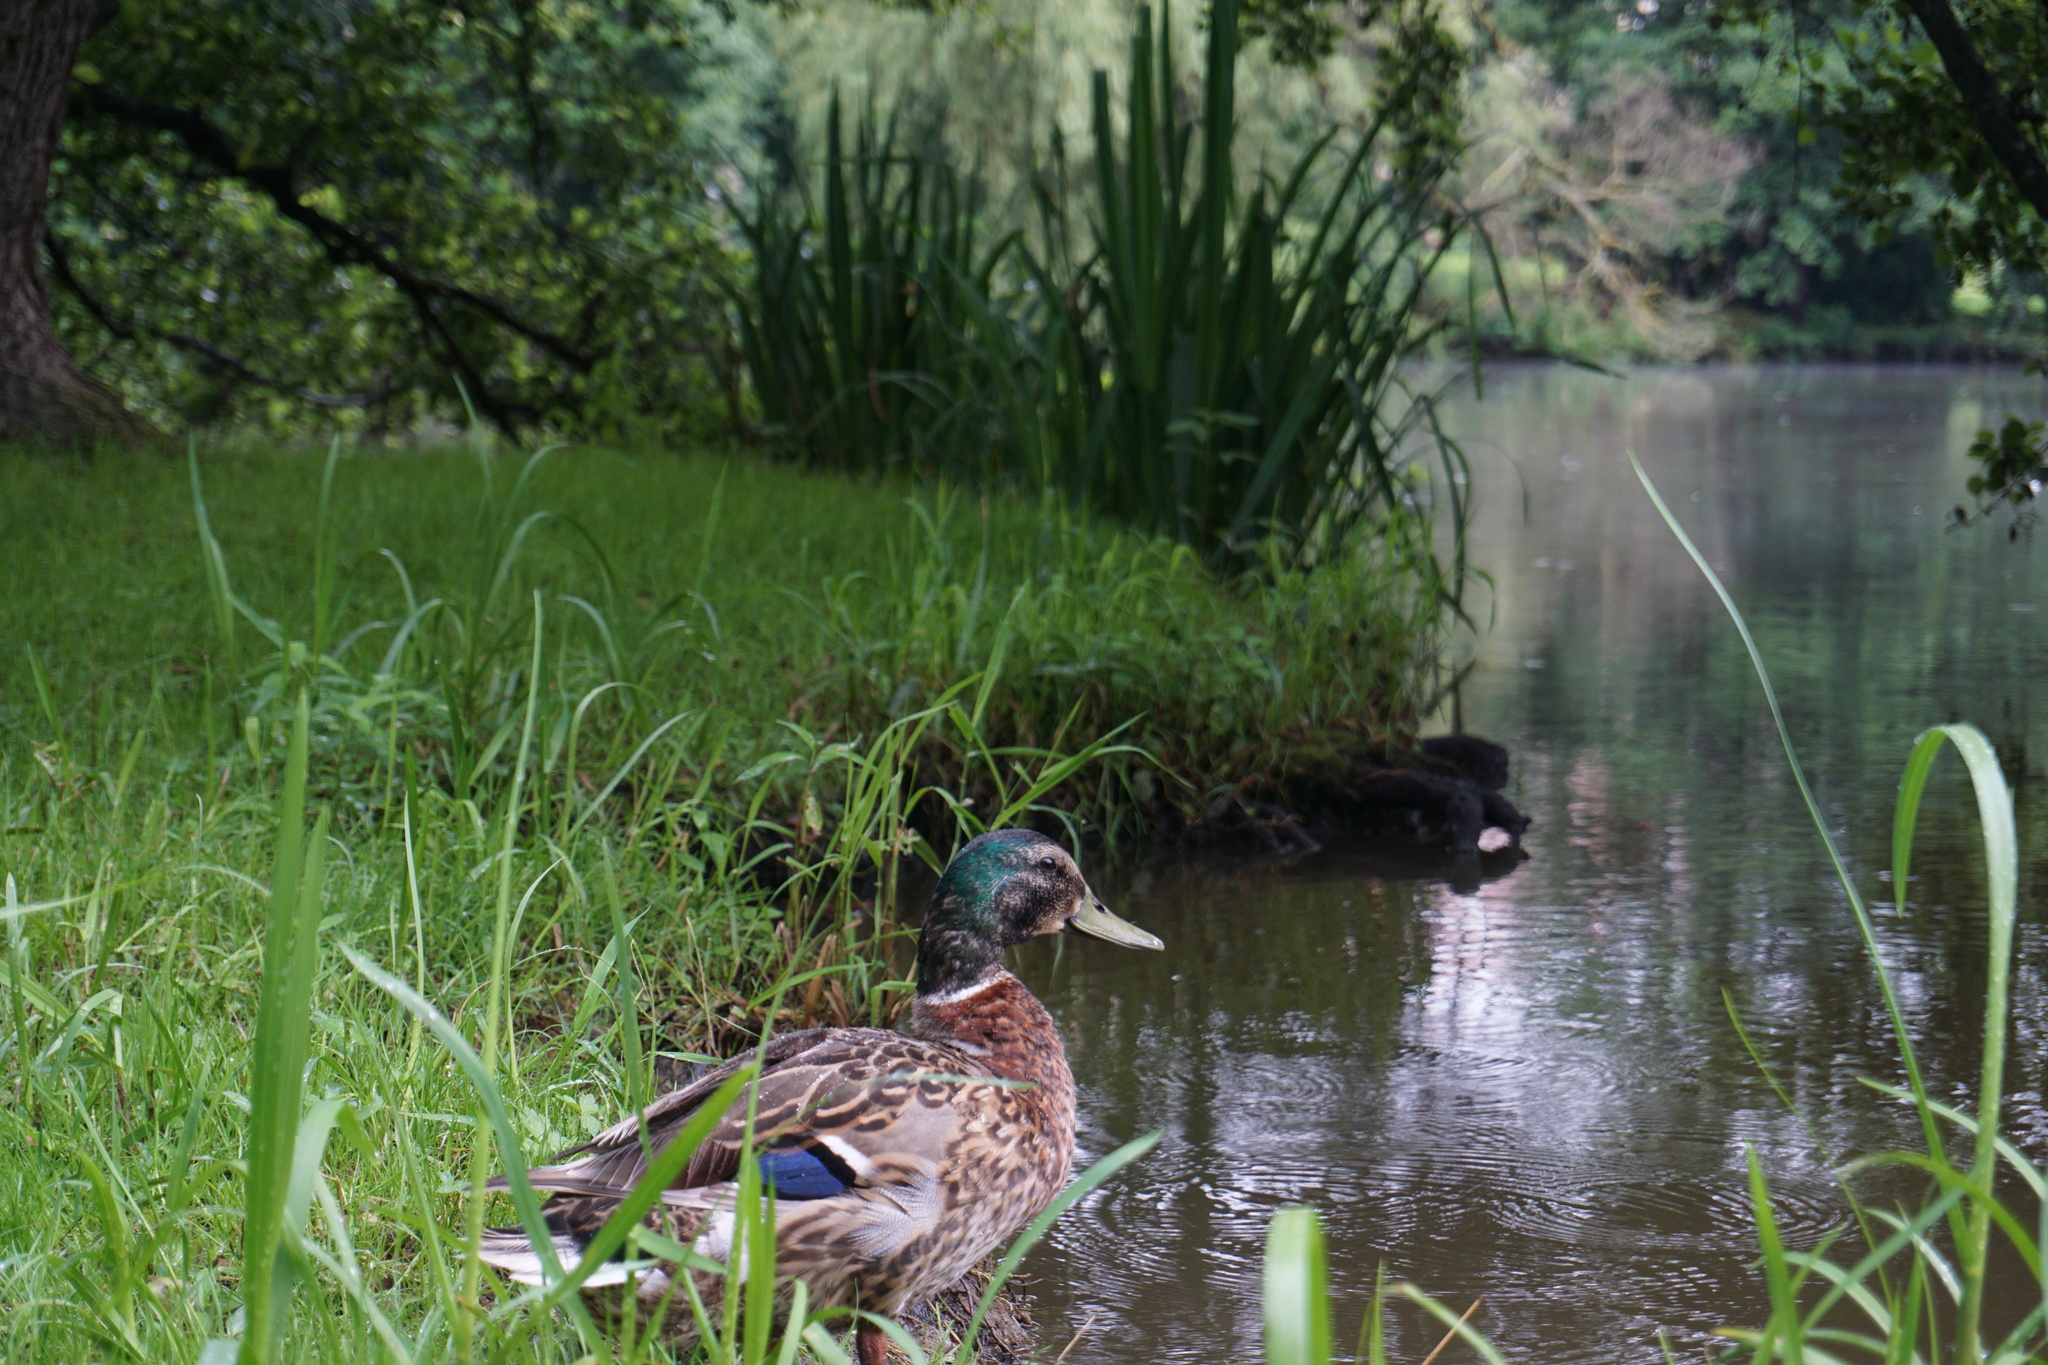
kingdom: Animalia
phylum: Chordata
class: Aves
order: Anseriformes
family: Anatidae
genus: Anas
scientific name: Anas platyrhynchos
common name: Mallard
